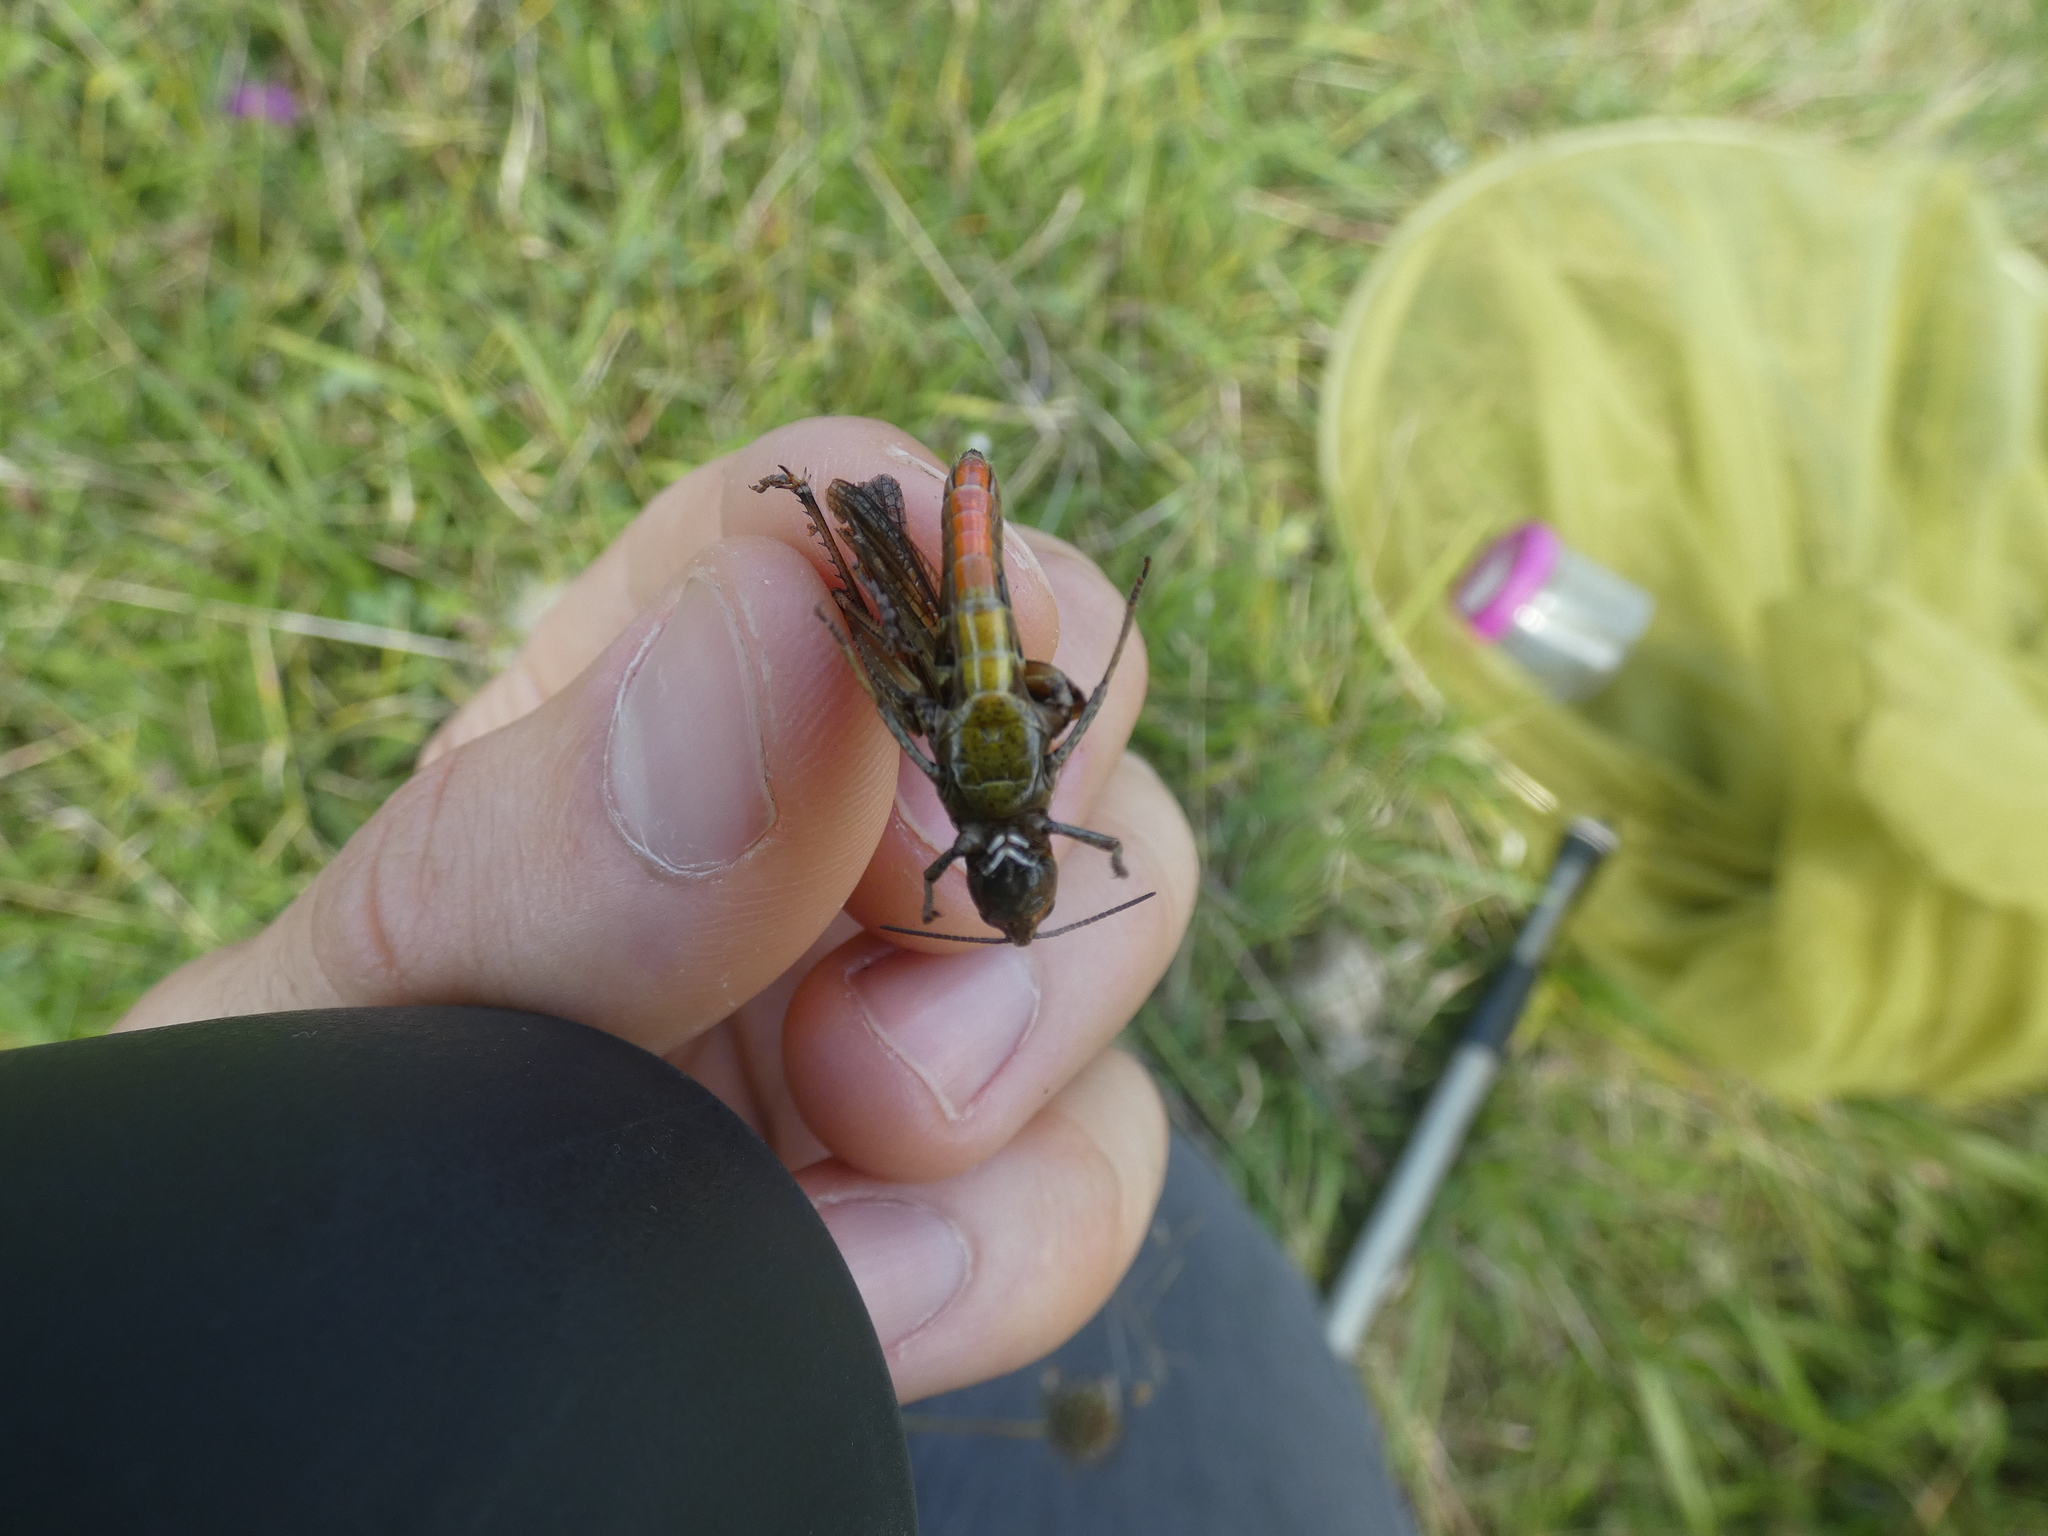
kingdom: Animalia
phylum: Arthropoda
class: Insecta
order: Orthoptera
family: Acrididae
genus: Omocestus
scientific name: Omocestus rufipes
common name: Woodland grasshopper
